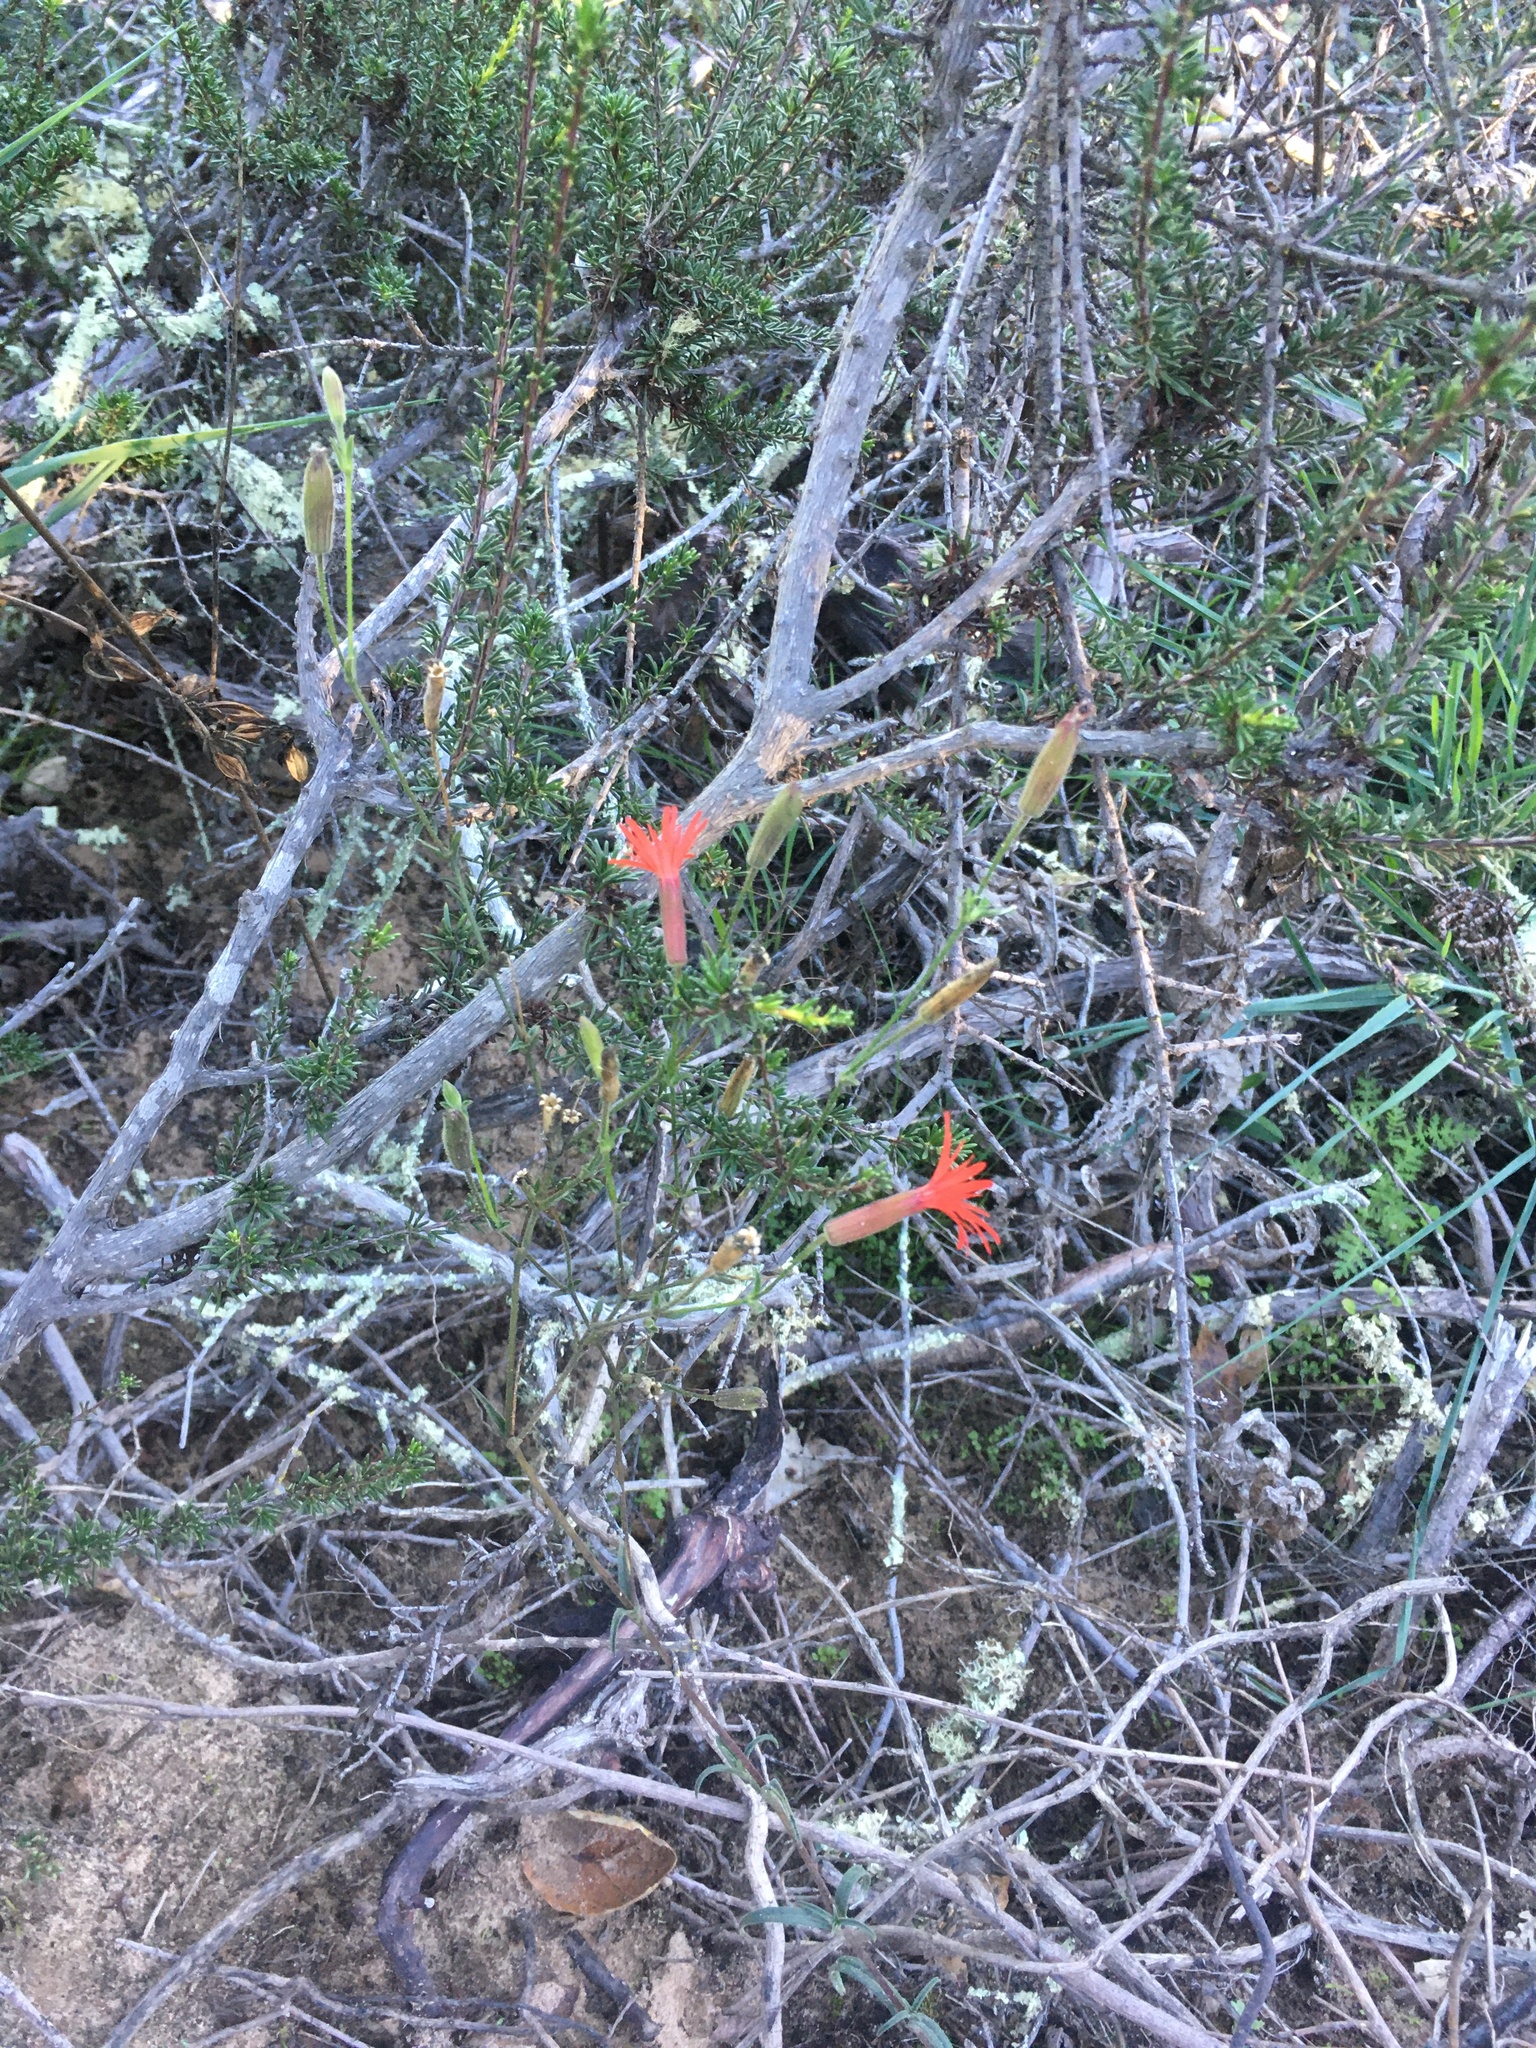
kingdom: Plantae
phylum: Tracheophyta
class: Magnoliopsida
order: Caryophyllales
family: Caryophyllaceae
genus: Silene
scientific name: Silene laciniata
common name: Indian-pink
